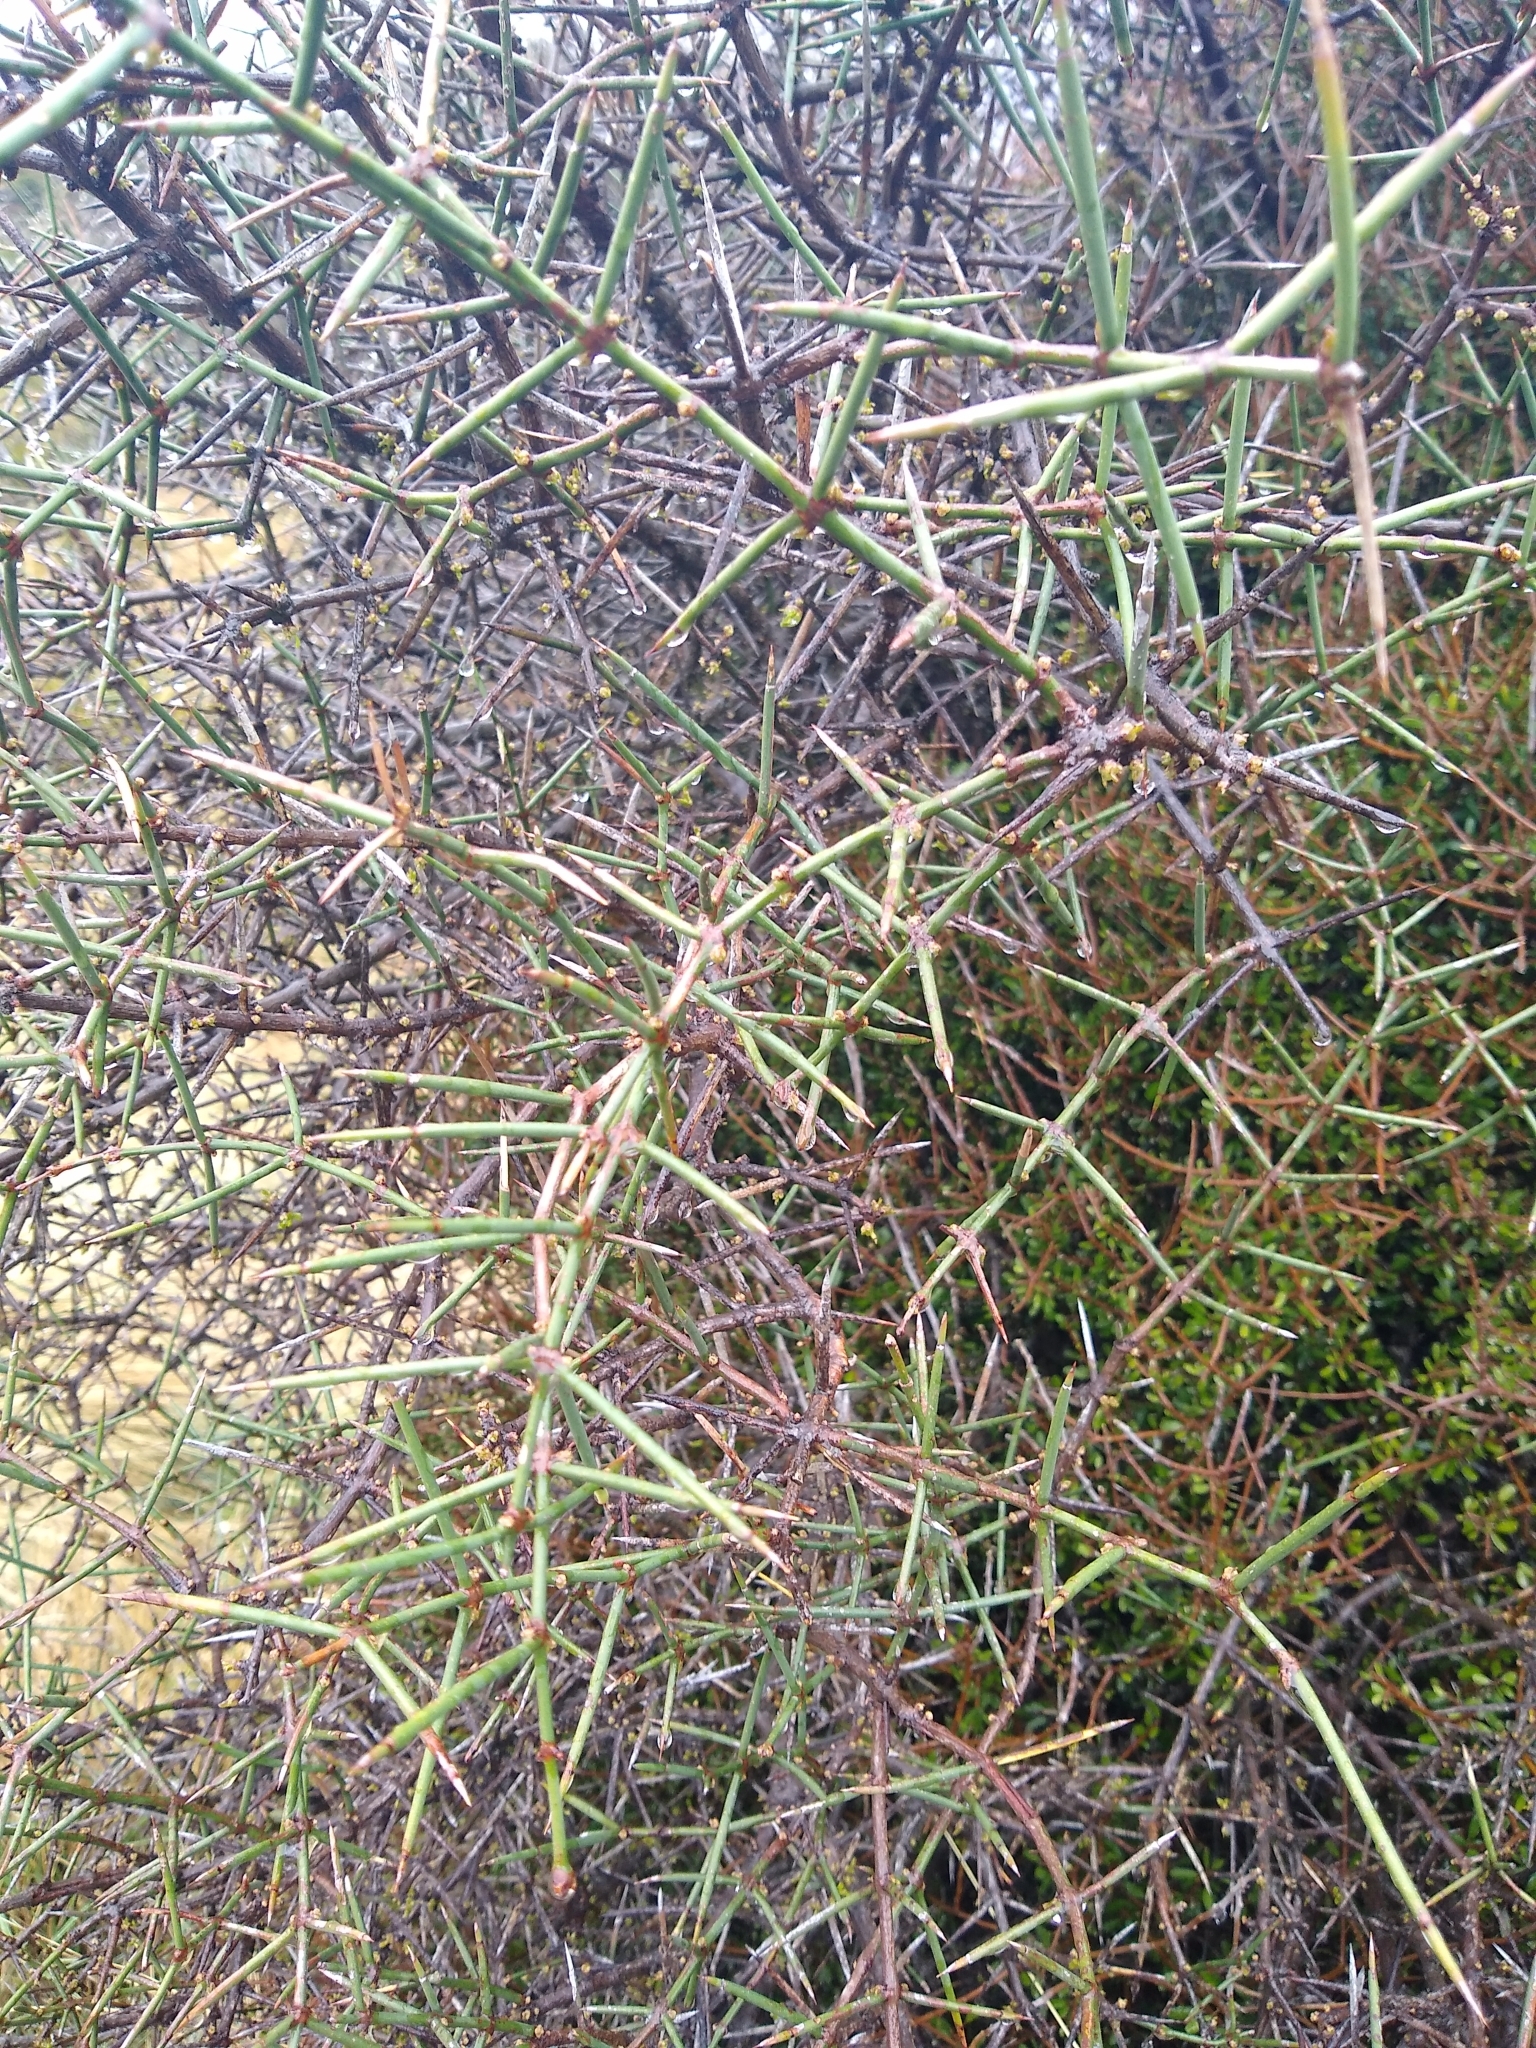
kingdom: Plantae
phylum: Tracheophyta
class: Magnoliopsida
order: Rosales
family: Rhamnaceae
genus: Discaria
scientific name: Discaria toumatou
